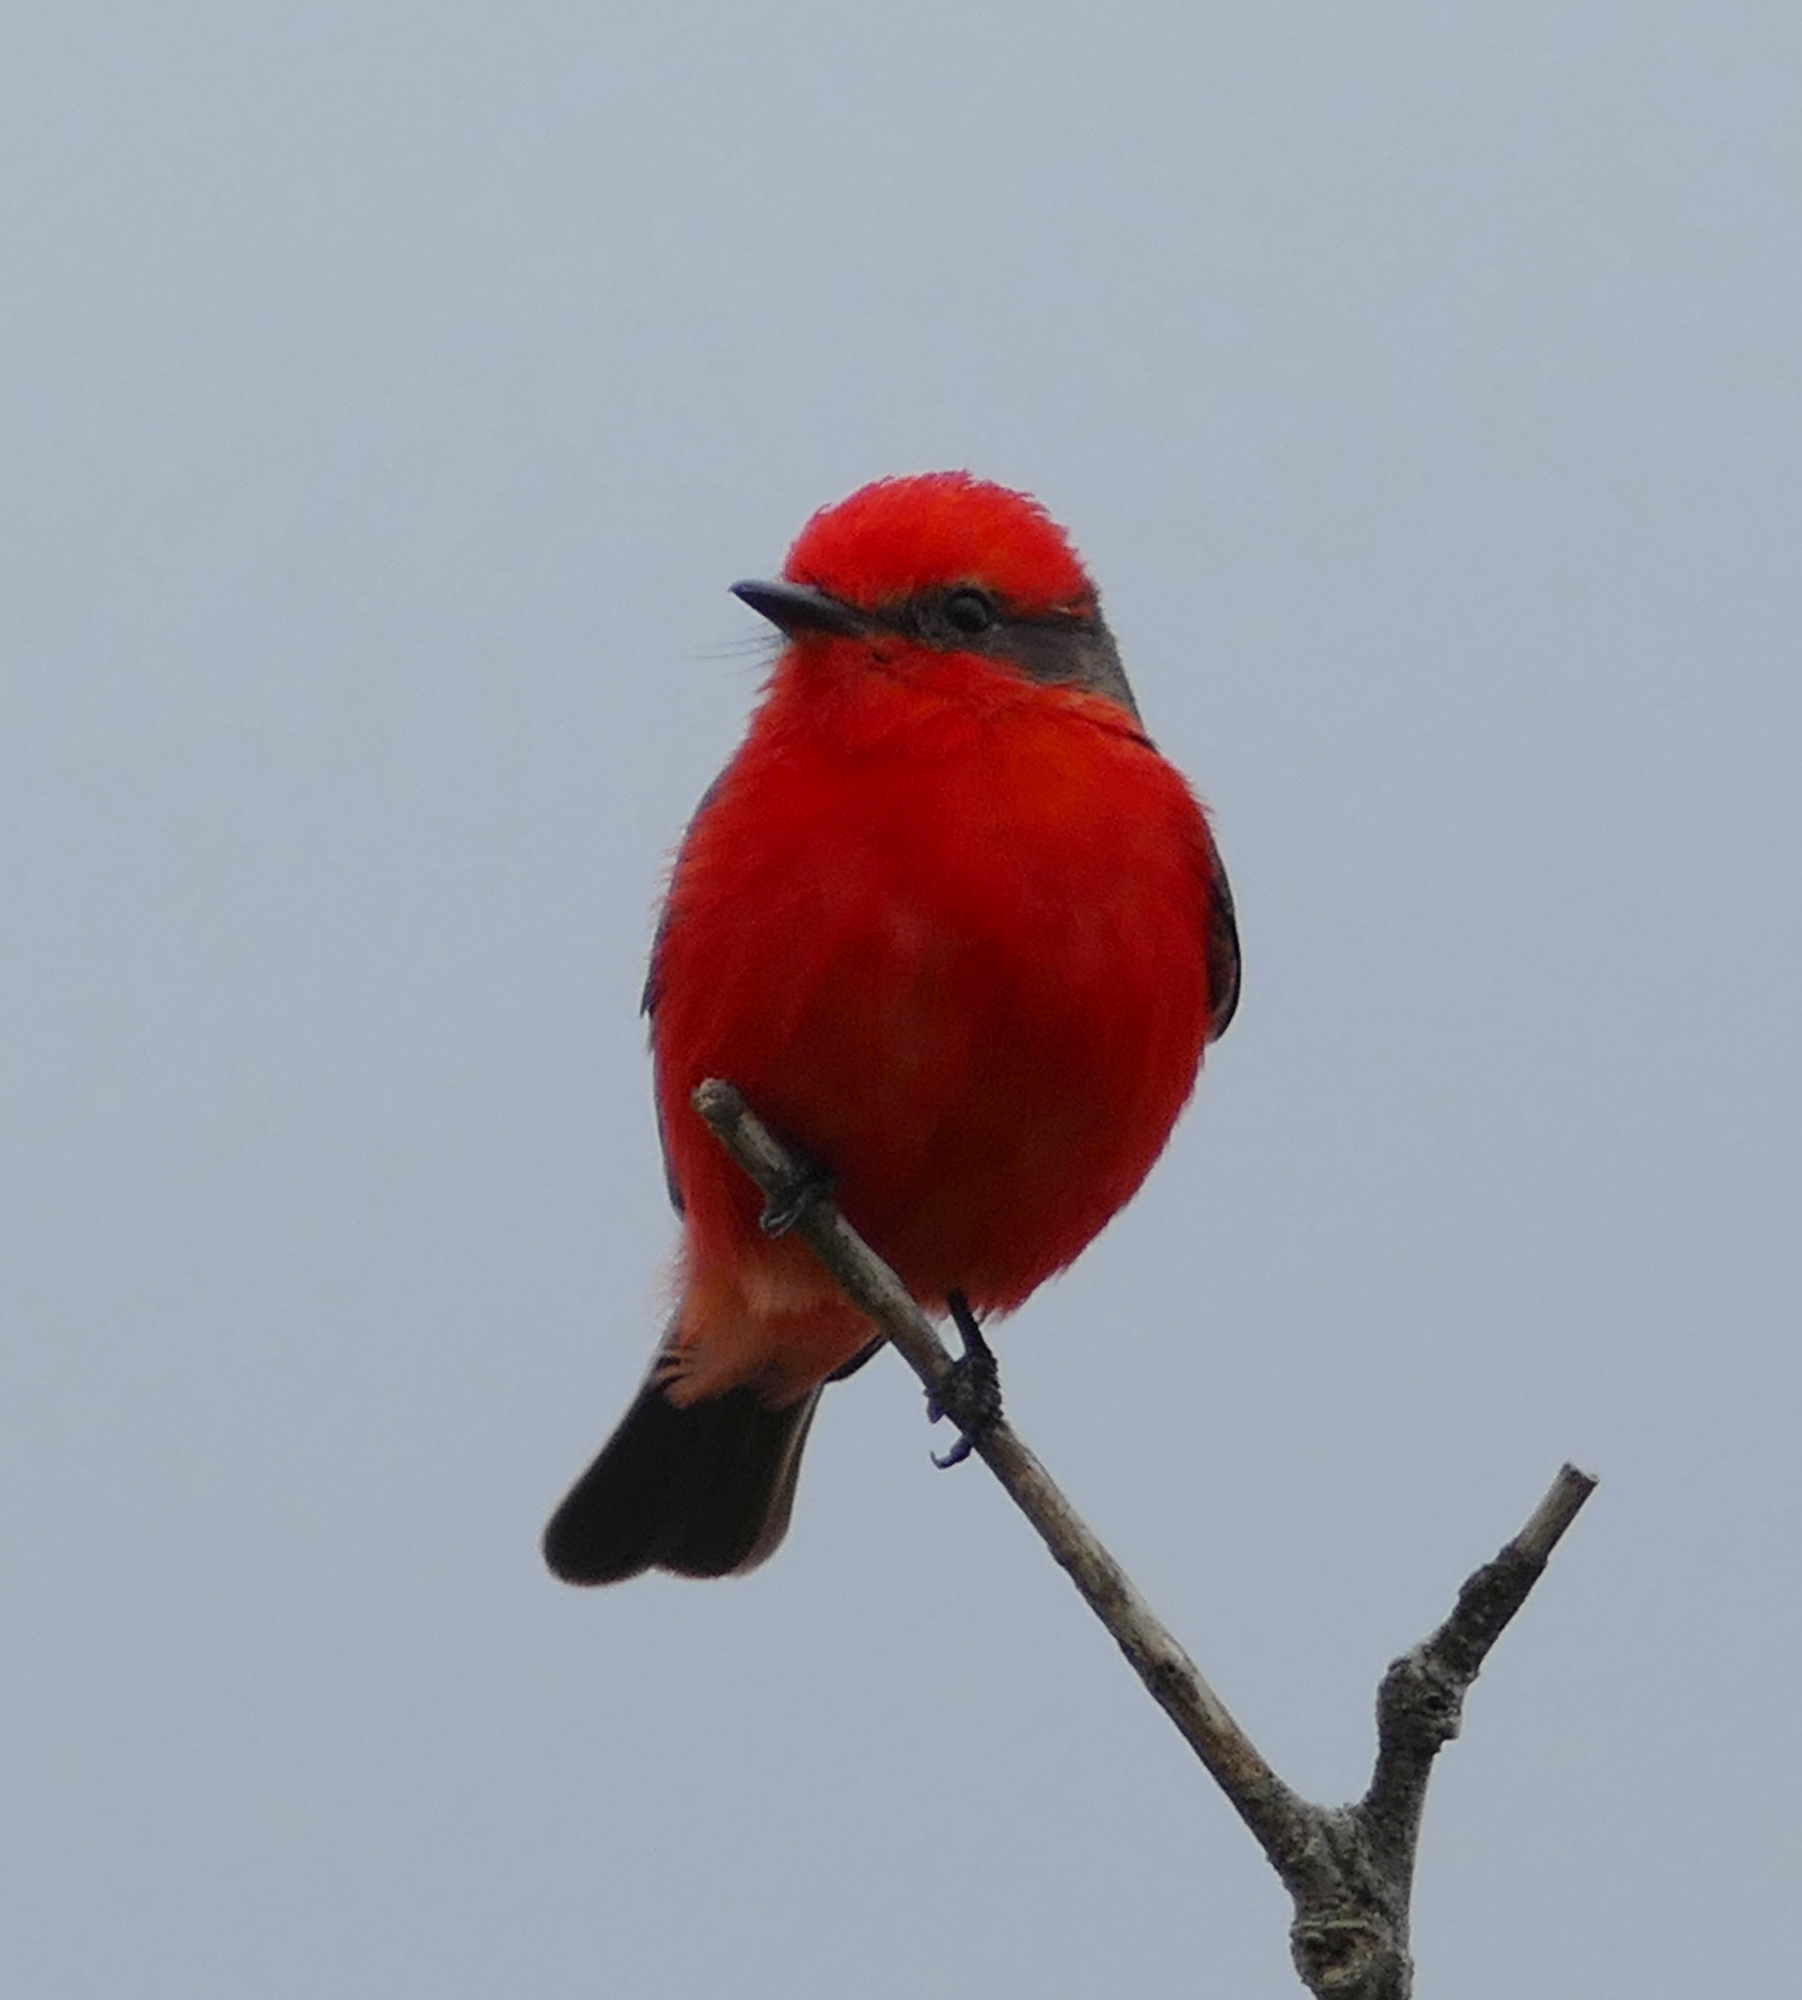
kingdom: Animalia
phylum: Chordata
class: Aves
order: Passeriformes
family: Tyrannidae
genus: Pyrocephalus
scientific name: Pyrocephalus rubinus
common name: Vermilion flycatcher
